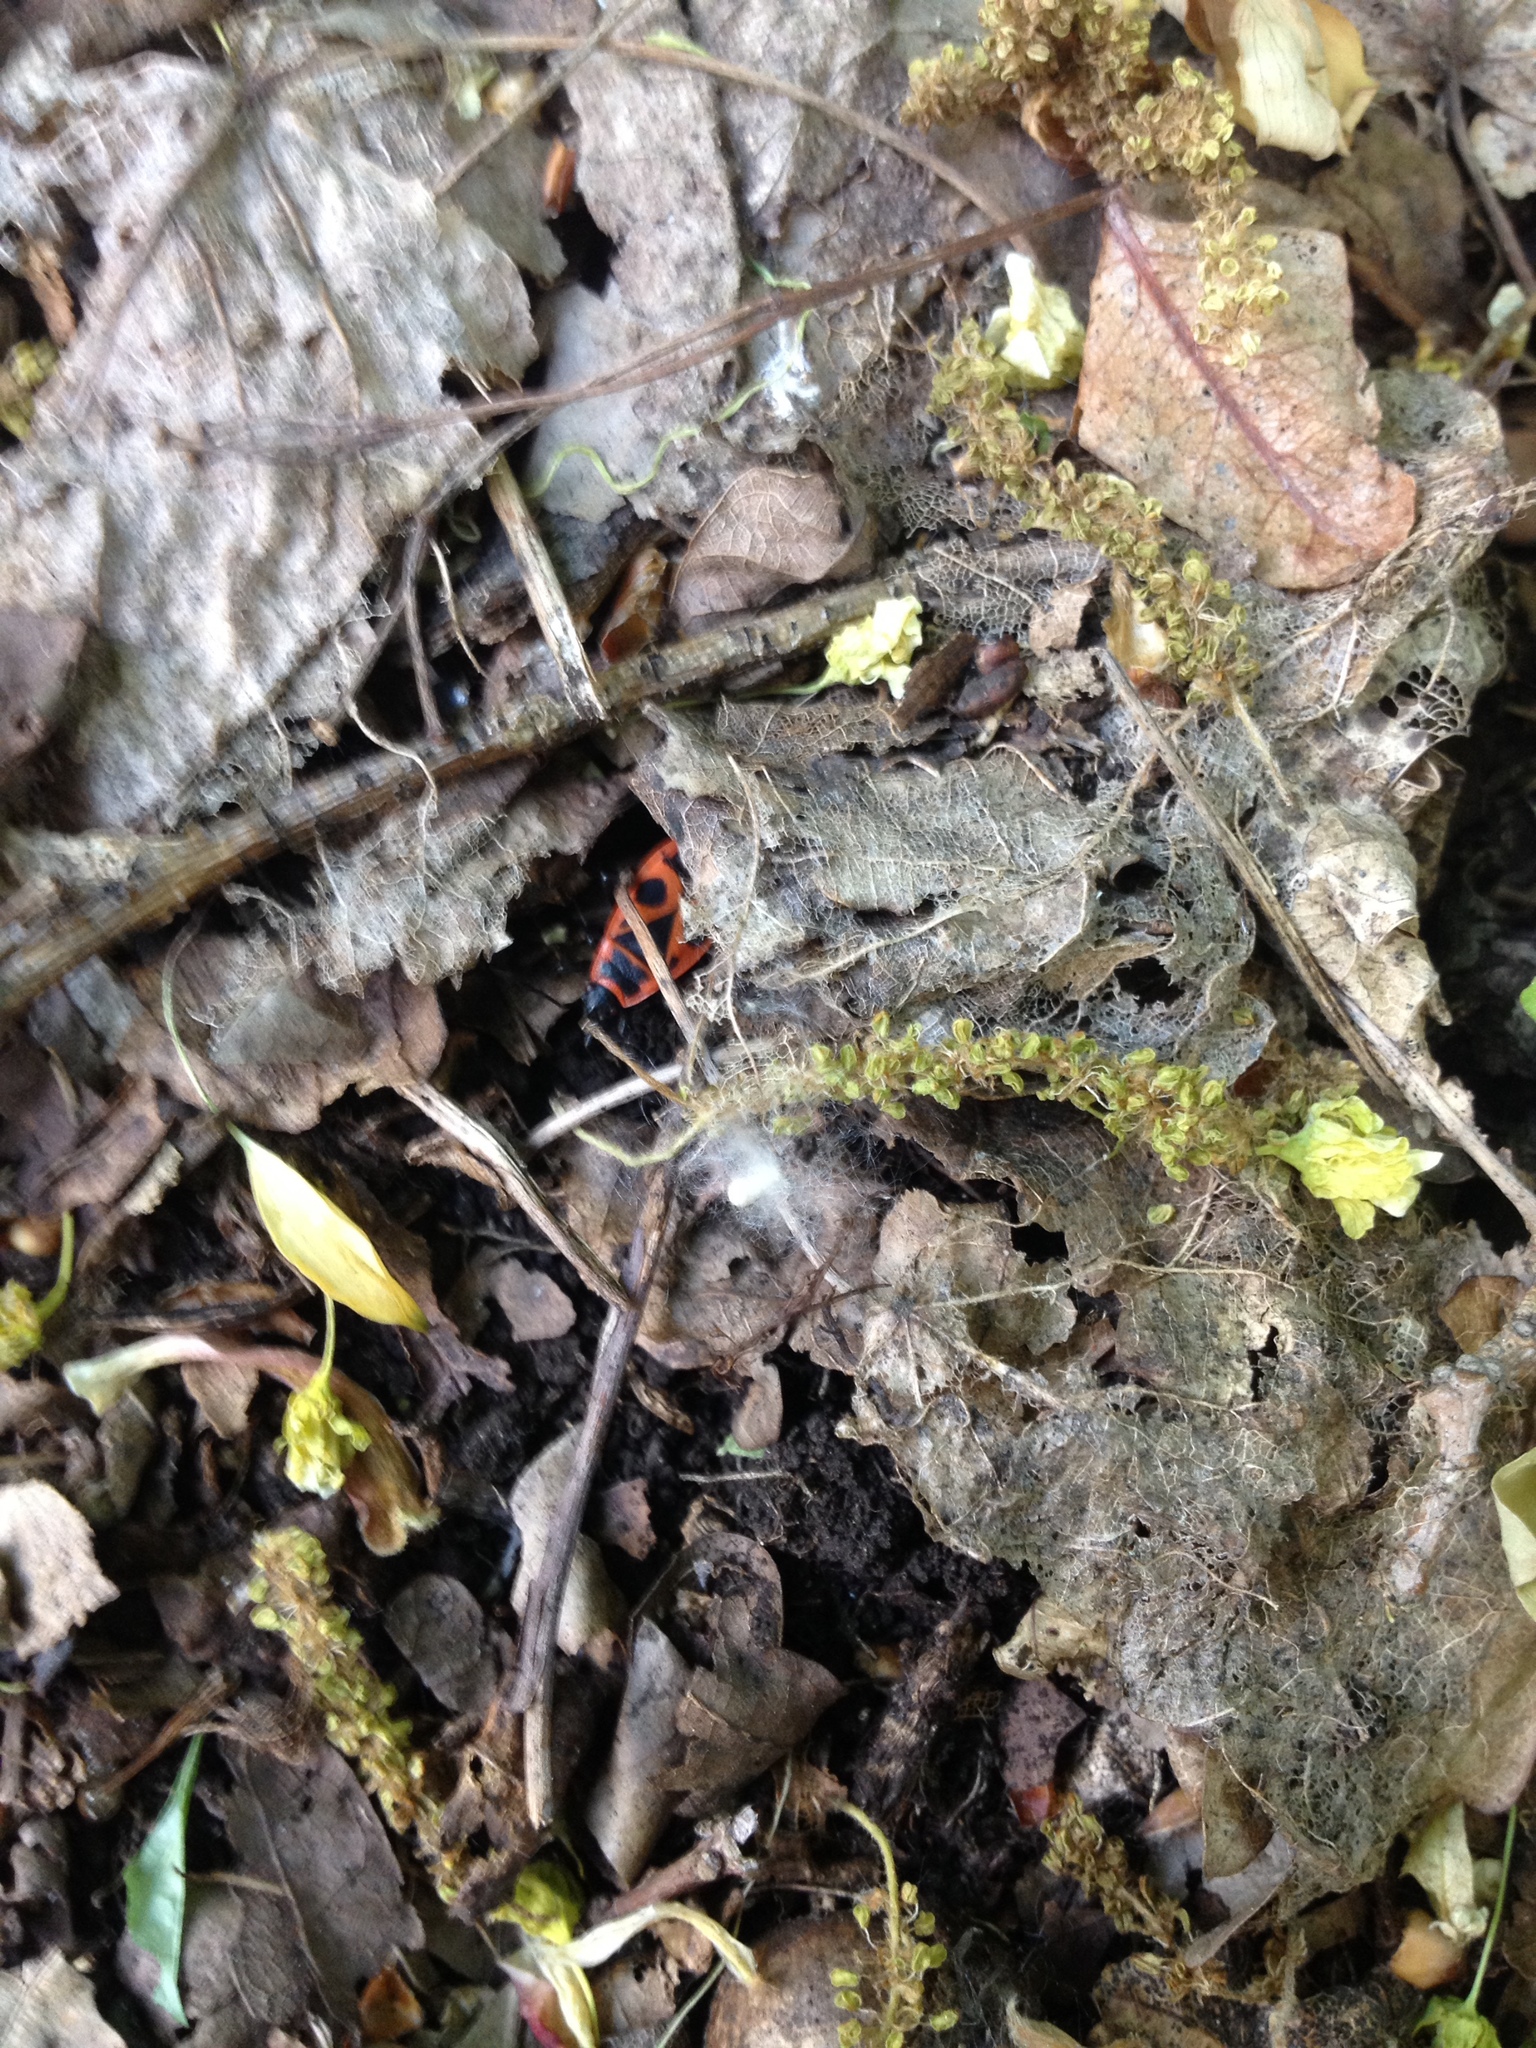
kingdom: Animalia
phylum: Arthropoda
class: Insecta
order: Hemiptera
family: Pyrrhocoridae
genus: Pyrrhocoris
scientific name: Pyrrhocoris apterus
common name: Firebug
